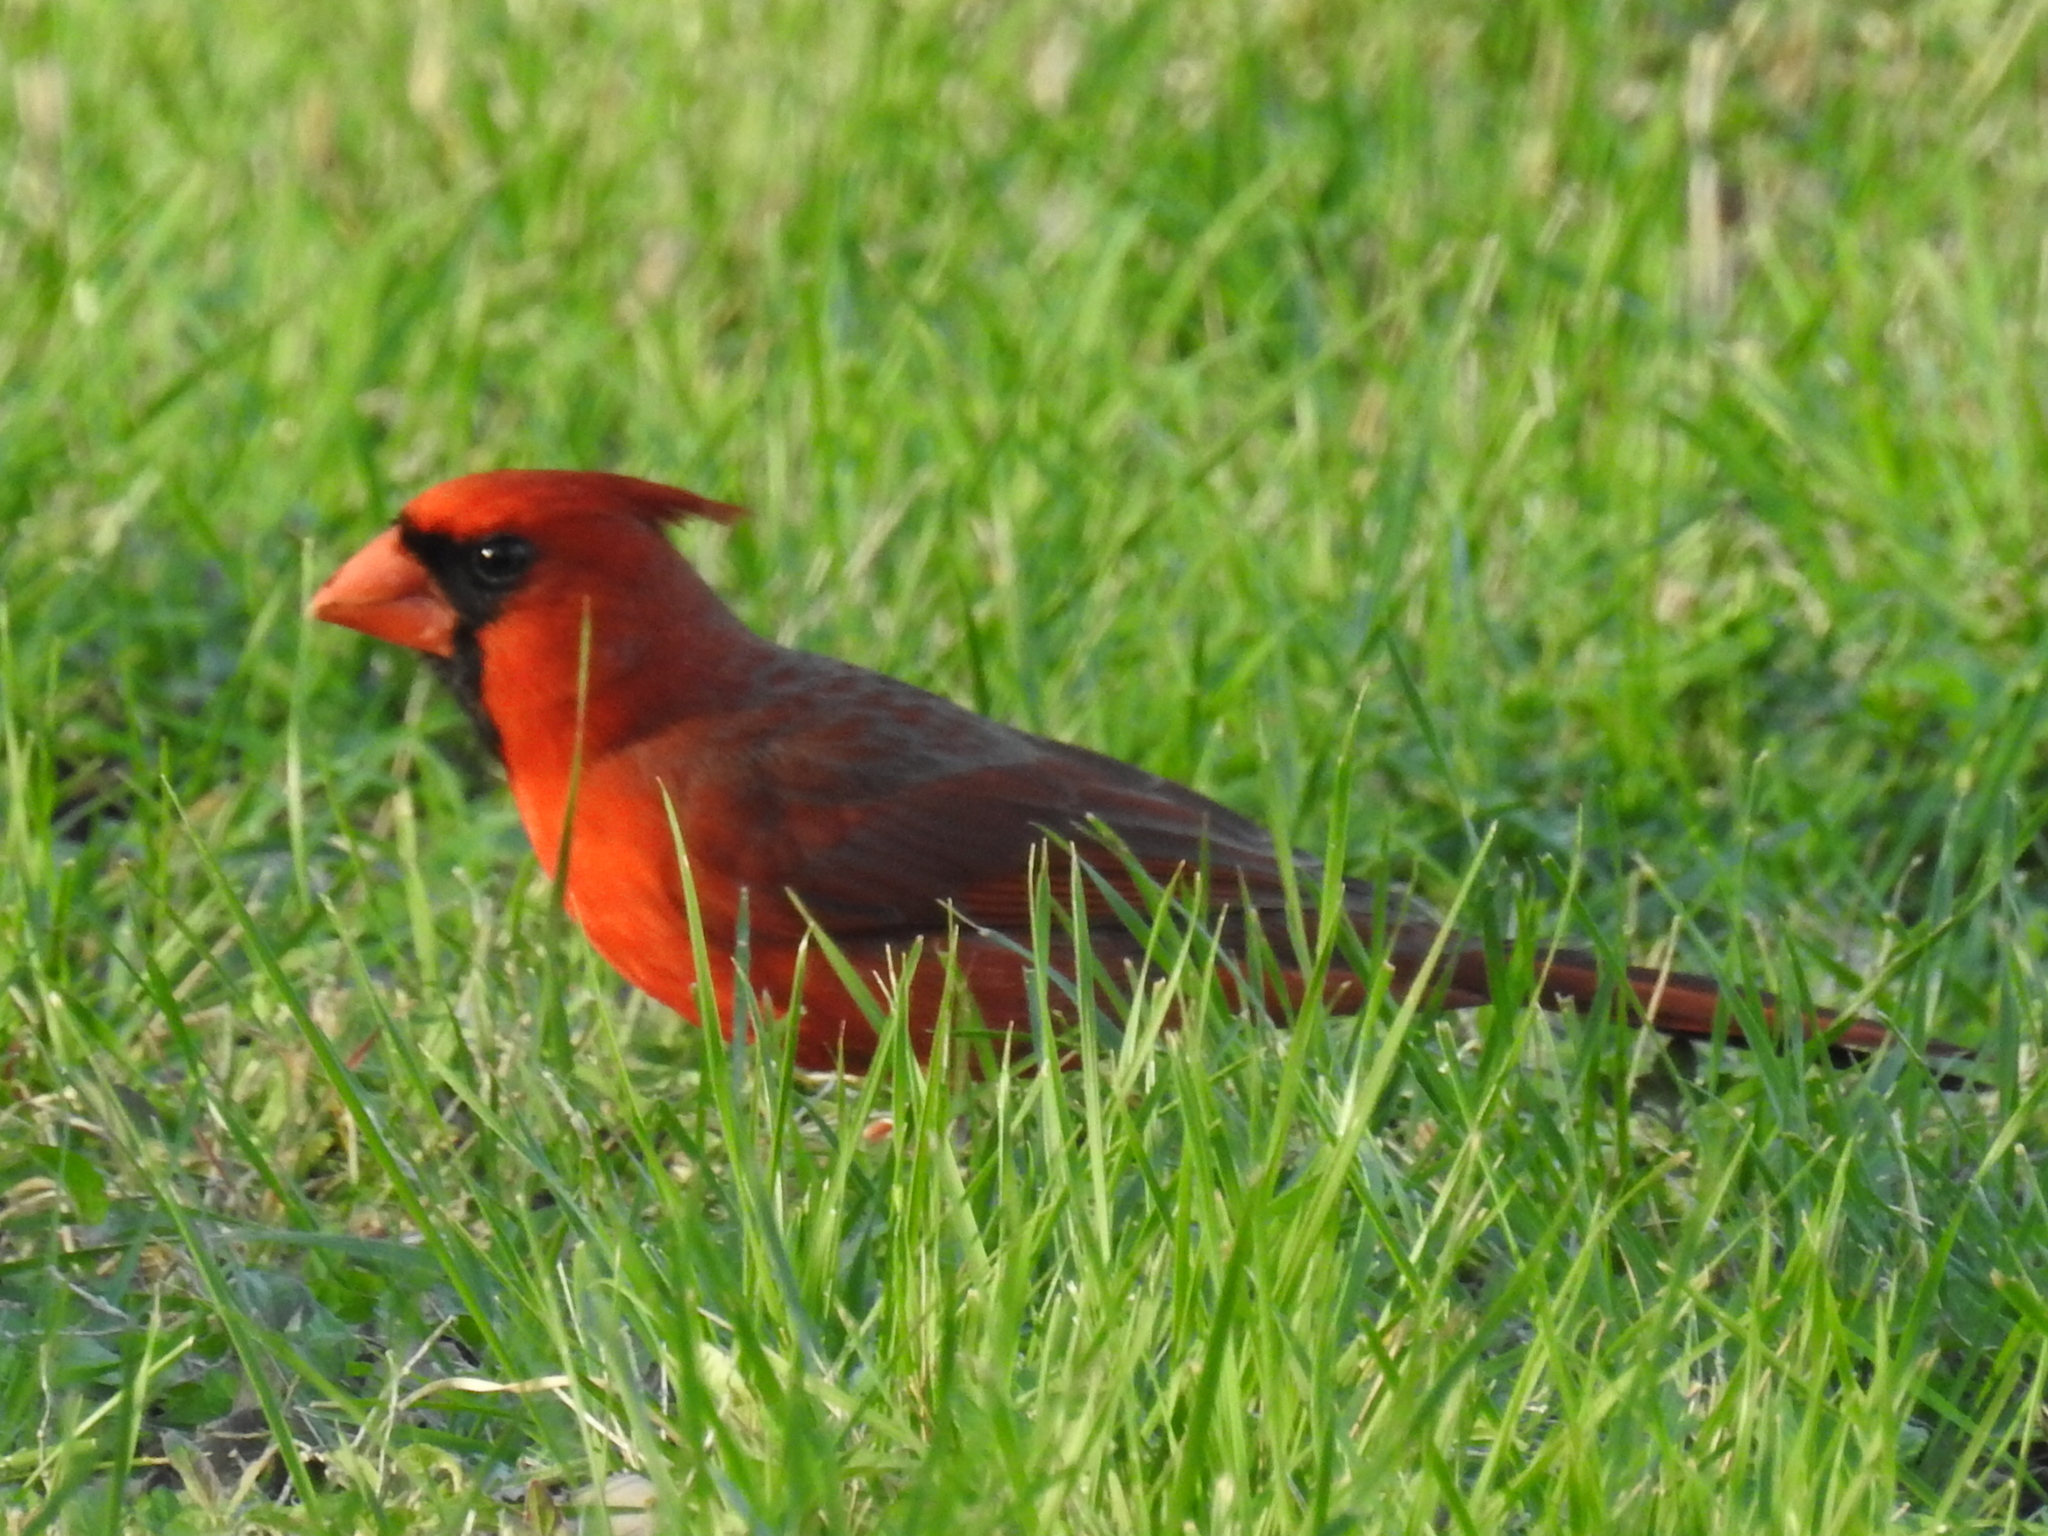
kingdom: Animalia
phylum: Chordata
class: Aves
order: Passeriformes
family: Cardinalidae
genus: Cardinalis
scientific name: Cardinalis cardinalis
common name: Northern cardinal
